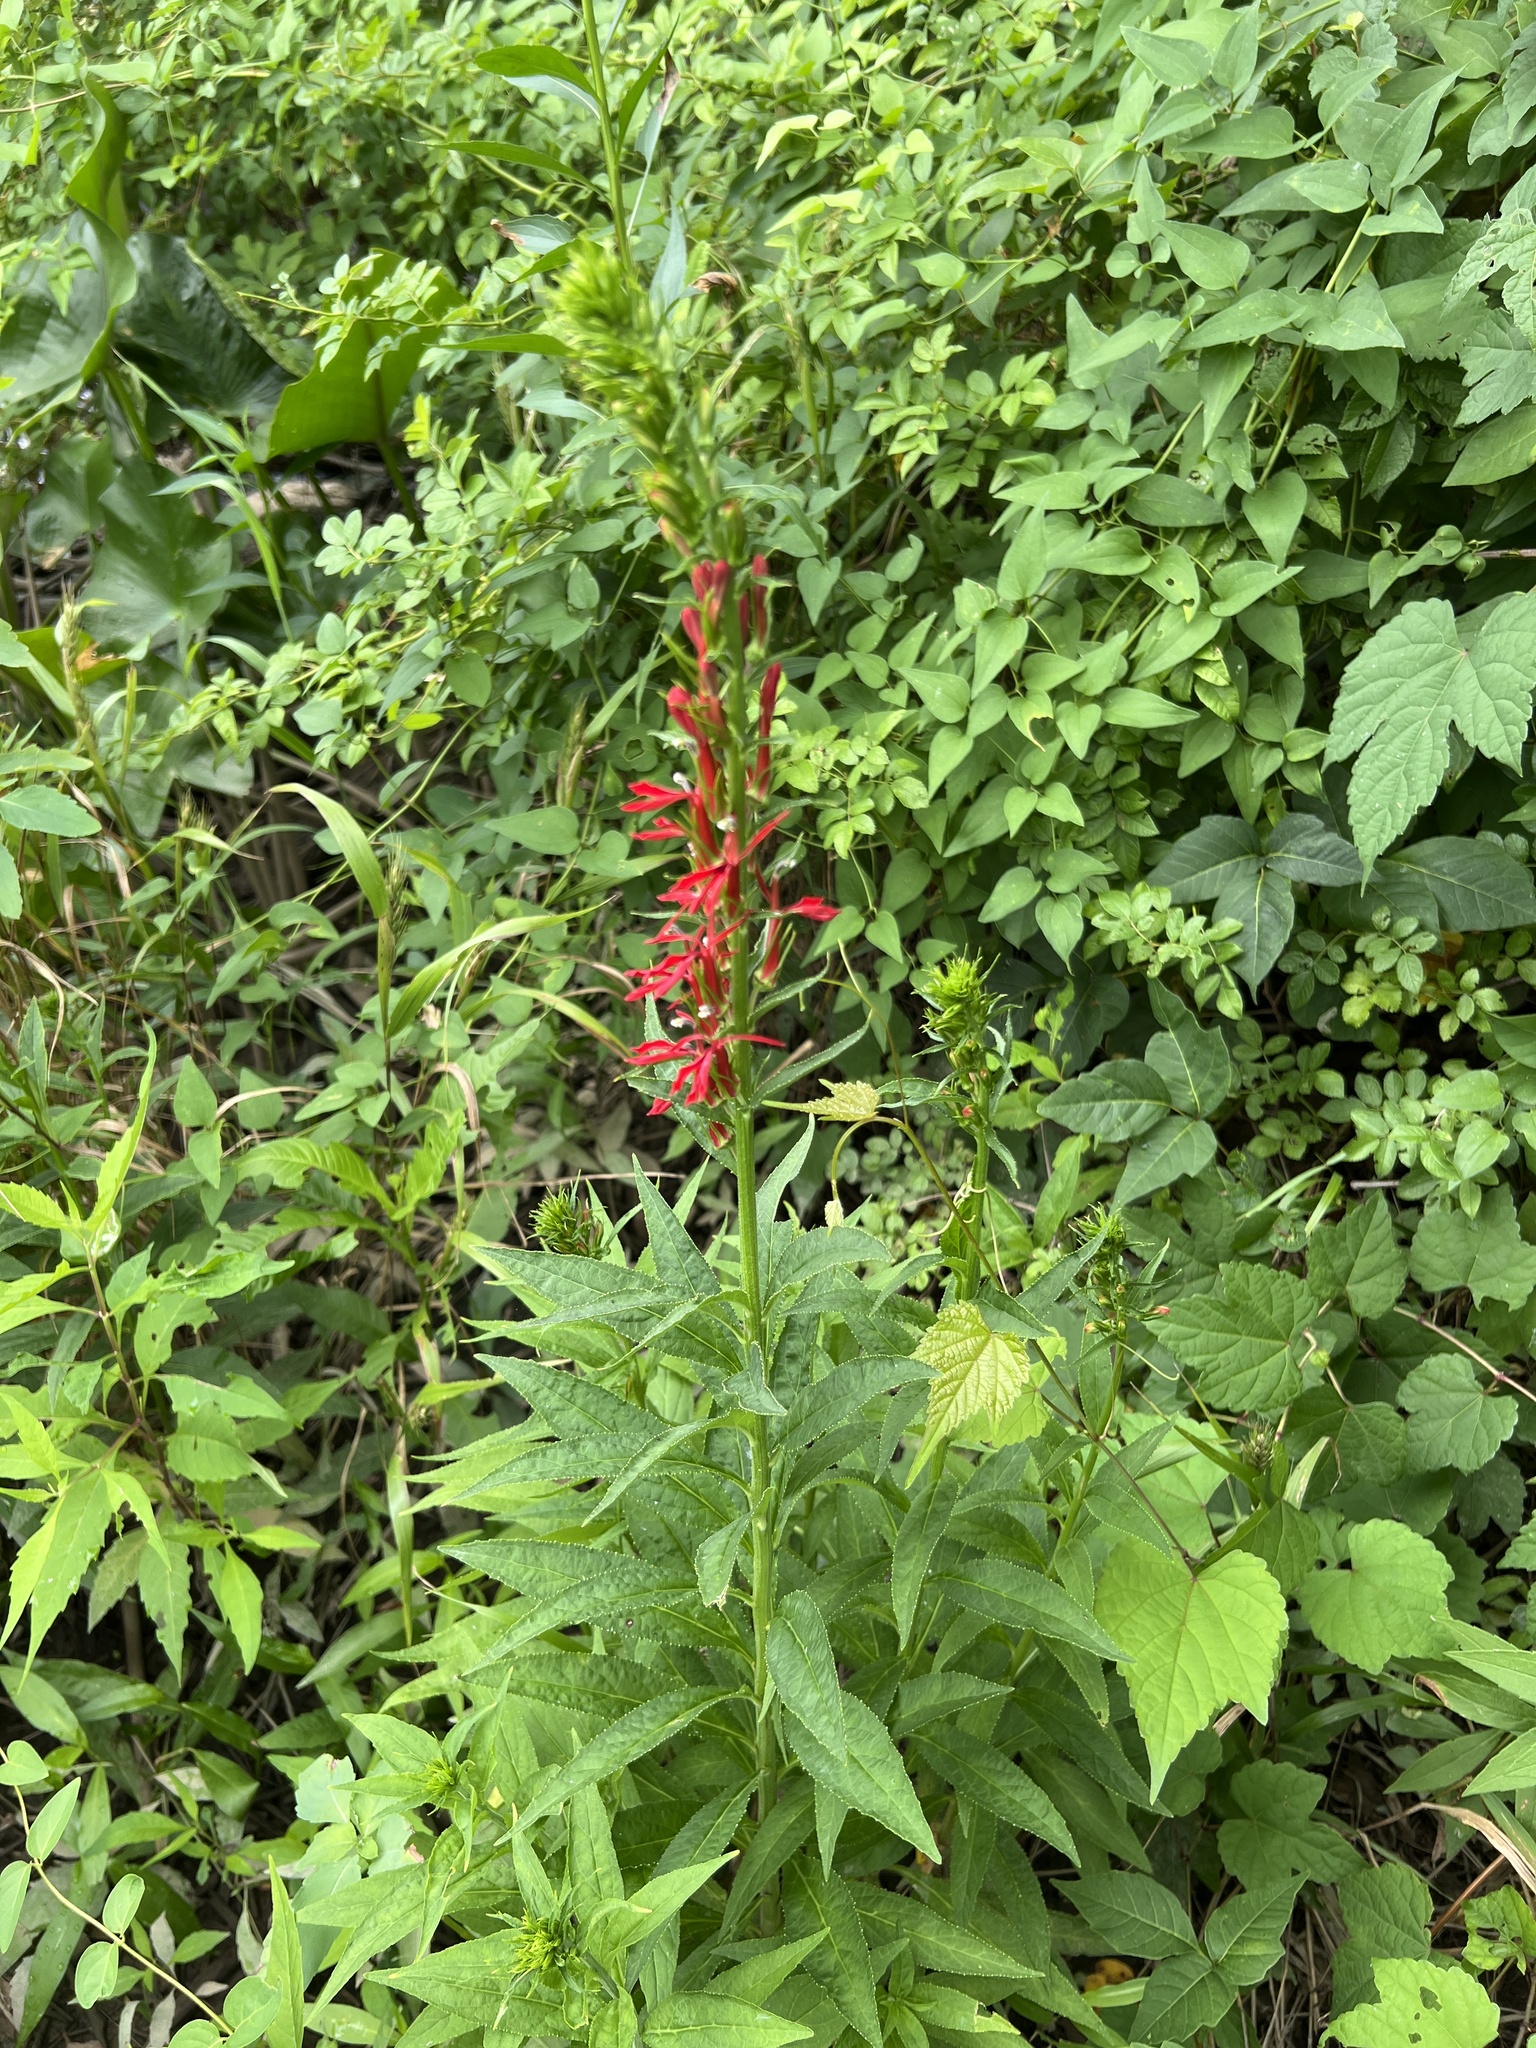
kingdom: Plantae
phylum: Tracheophyta
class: Magnoliopsida
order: Asterales
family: Campanulaceae
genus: Lobelia
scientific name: Lobelia cardinalis
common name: Cardinal flower
